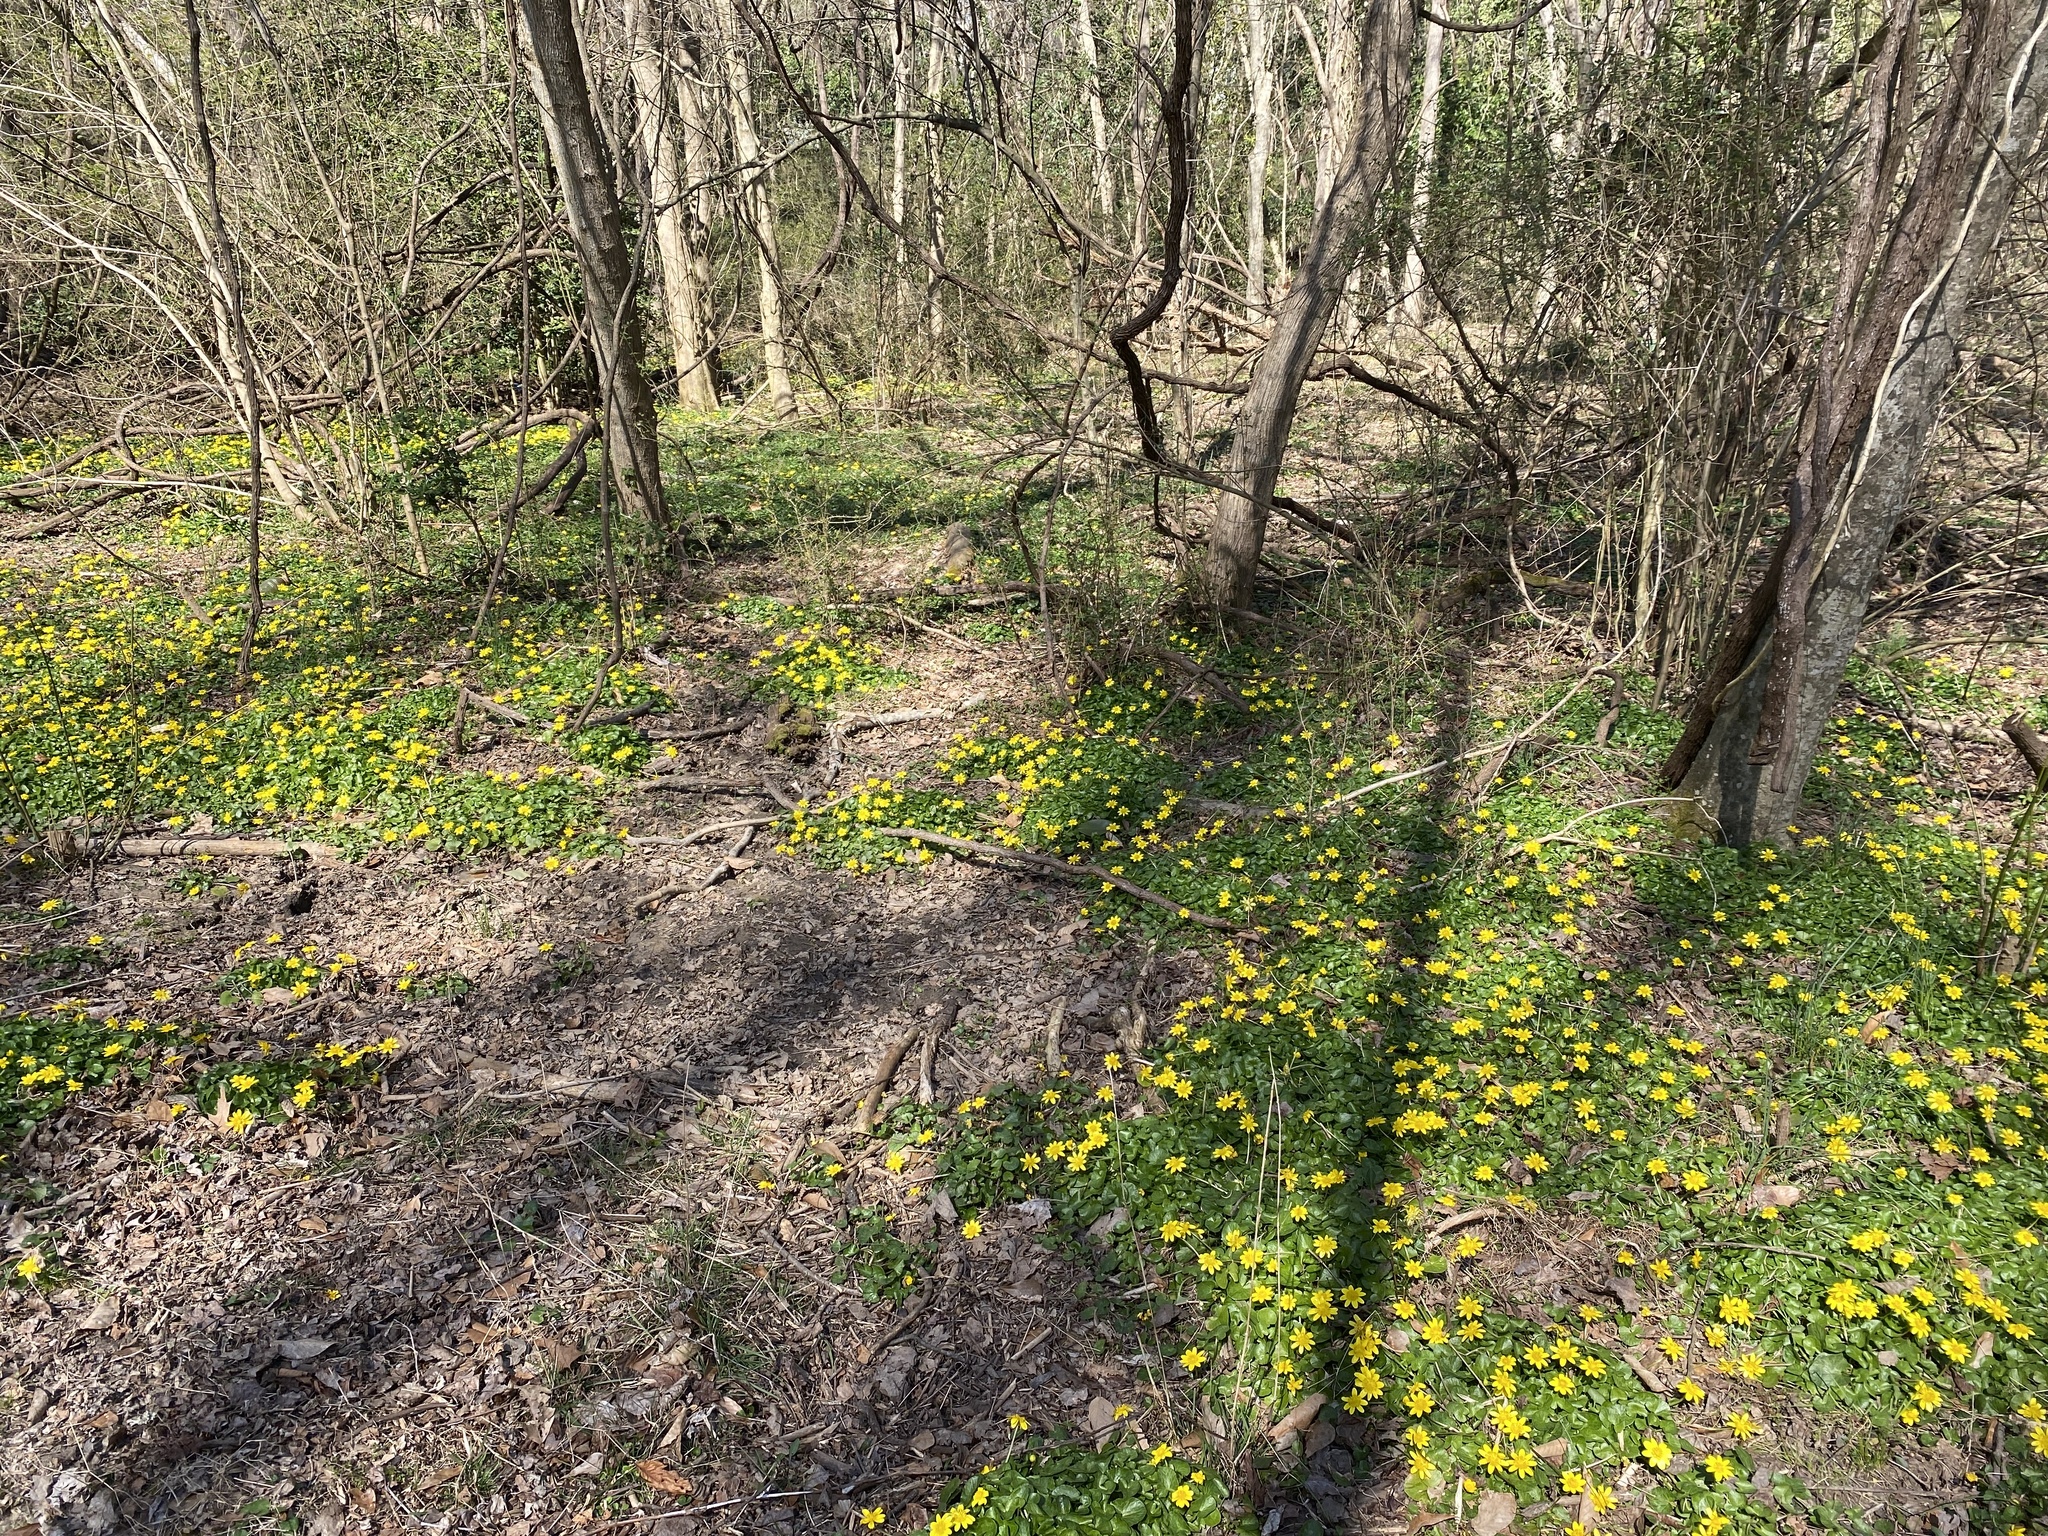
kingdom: Plantae
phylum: Tracheophyta
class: Magnoliopsida
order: Ranunculales
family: Ranunculaceae
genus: Ficaria
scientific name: Ficaria verna
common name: Lesser celandine
